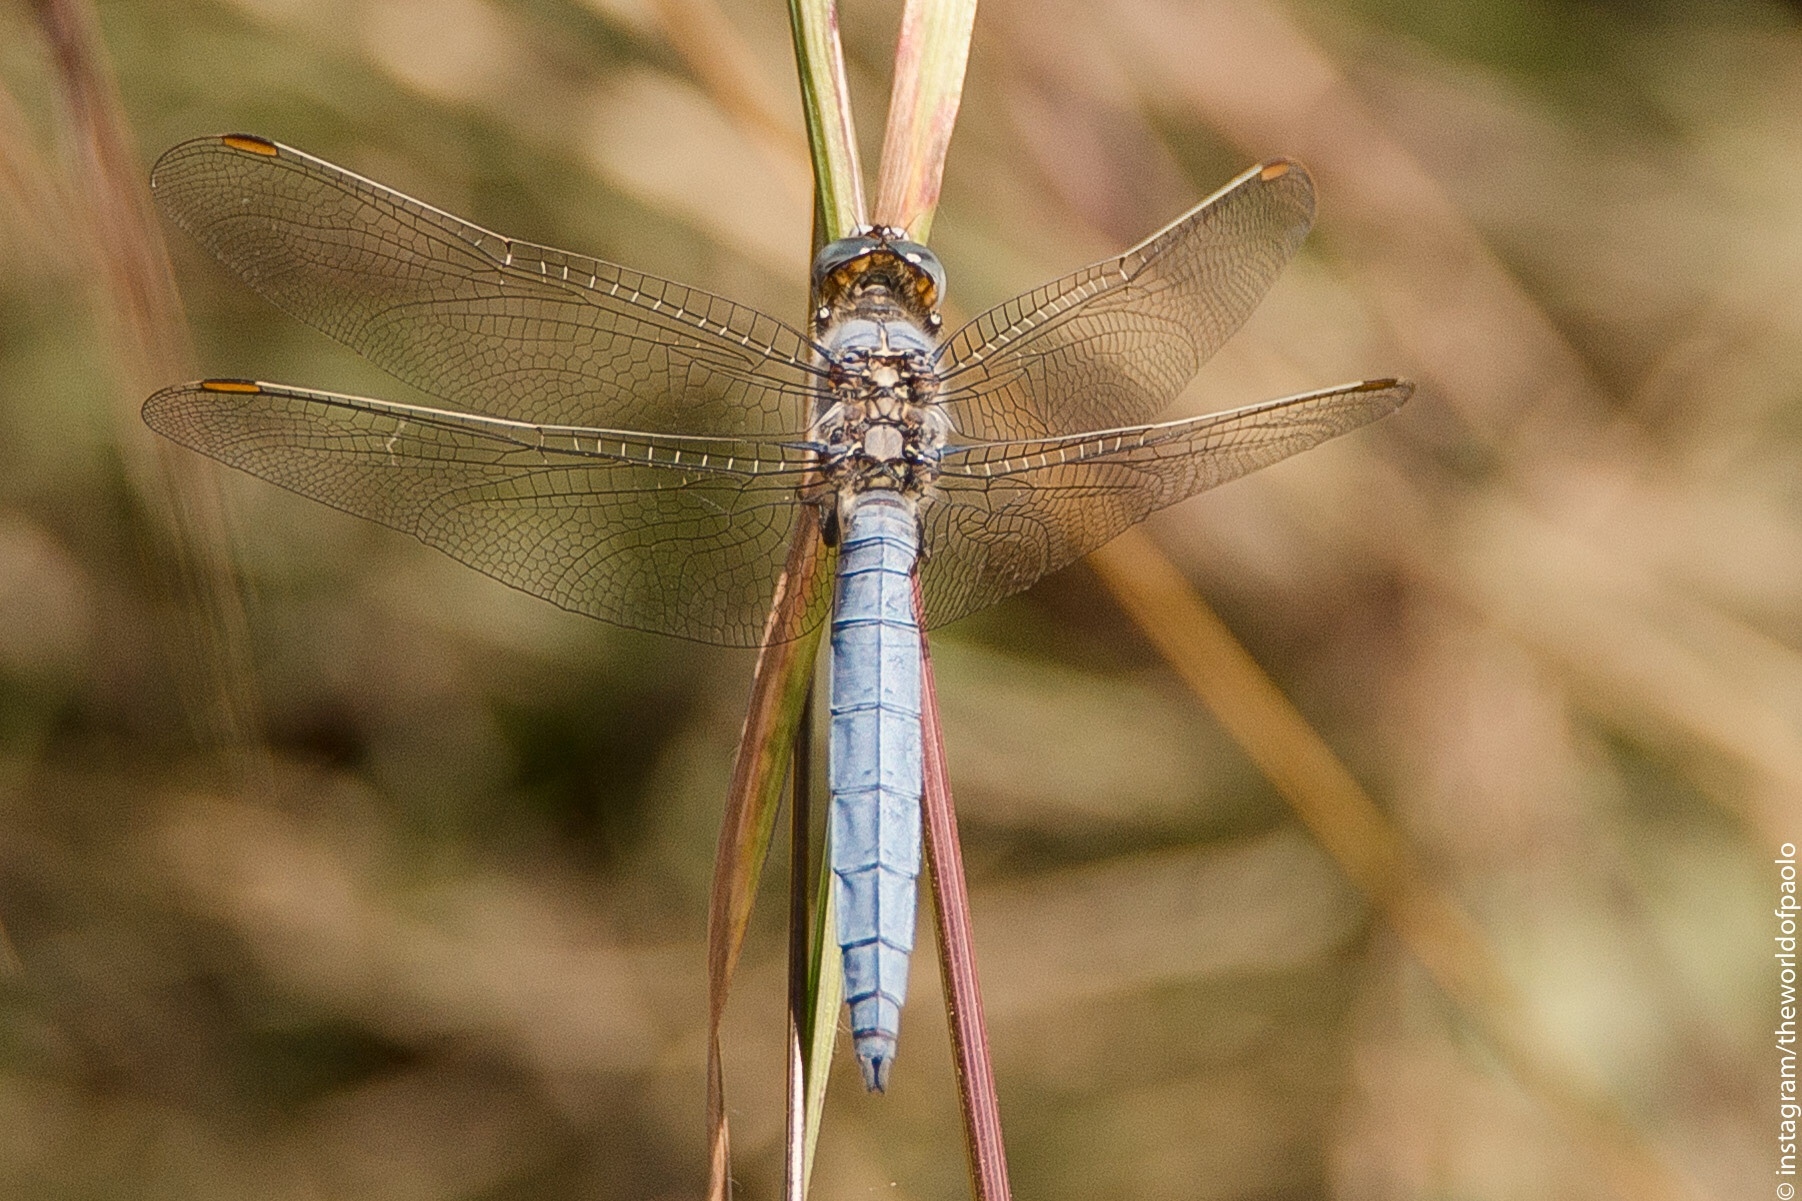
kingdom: Animalia
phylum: Arthropoda
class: Insecta
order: Odonata
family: Libellulidae
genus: Orthetrum
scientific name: Orthetrum brunneum
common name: Southern skimmer
